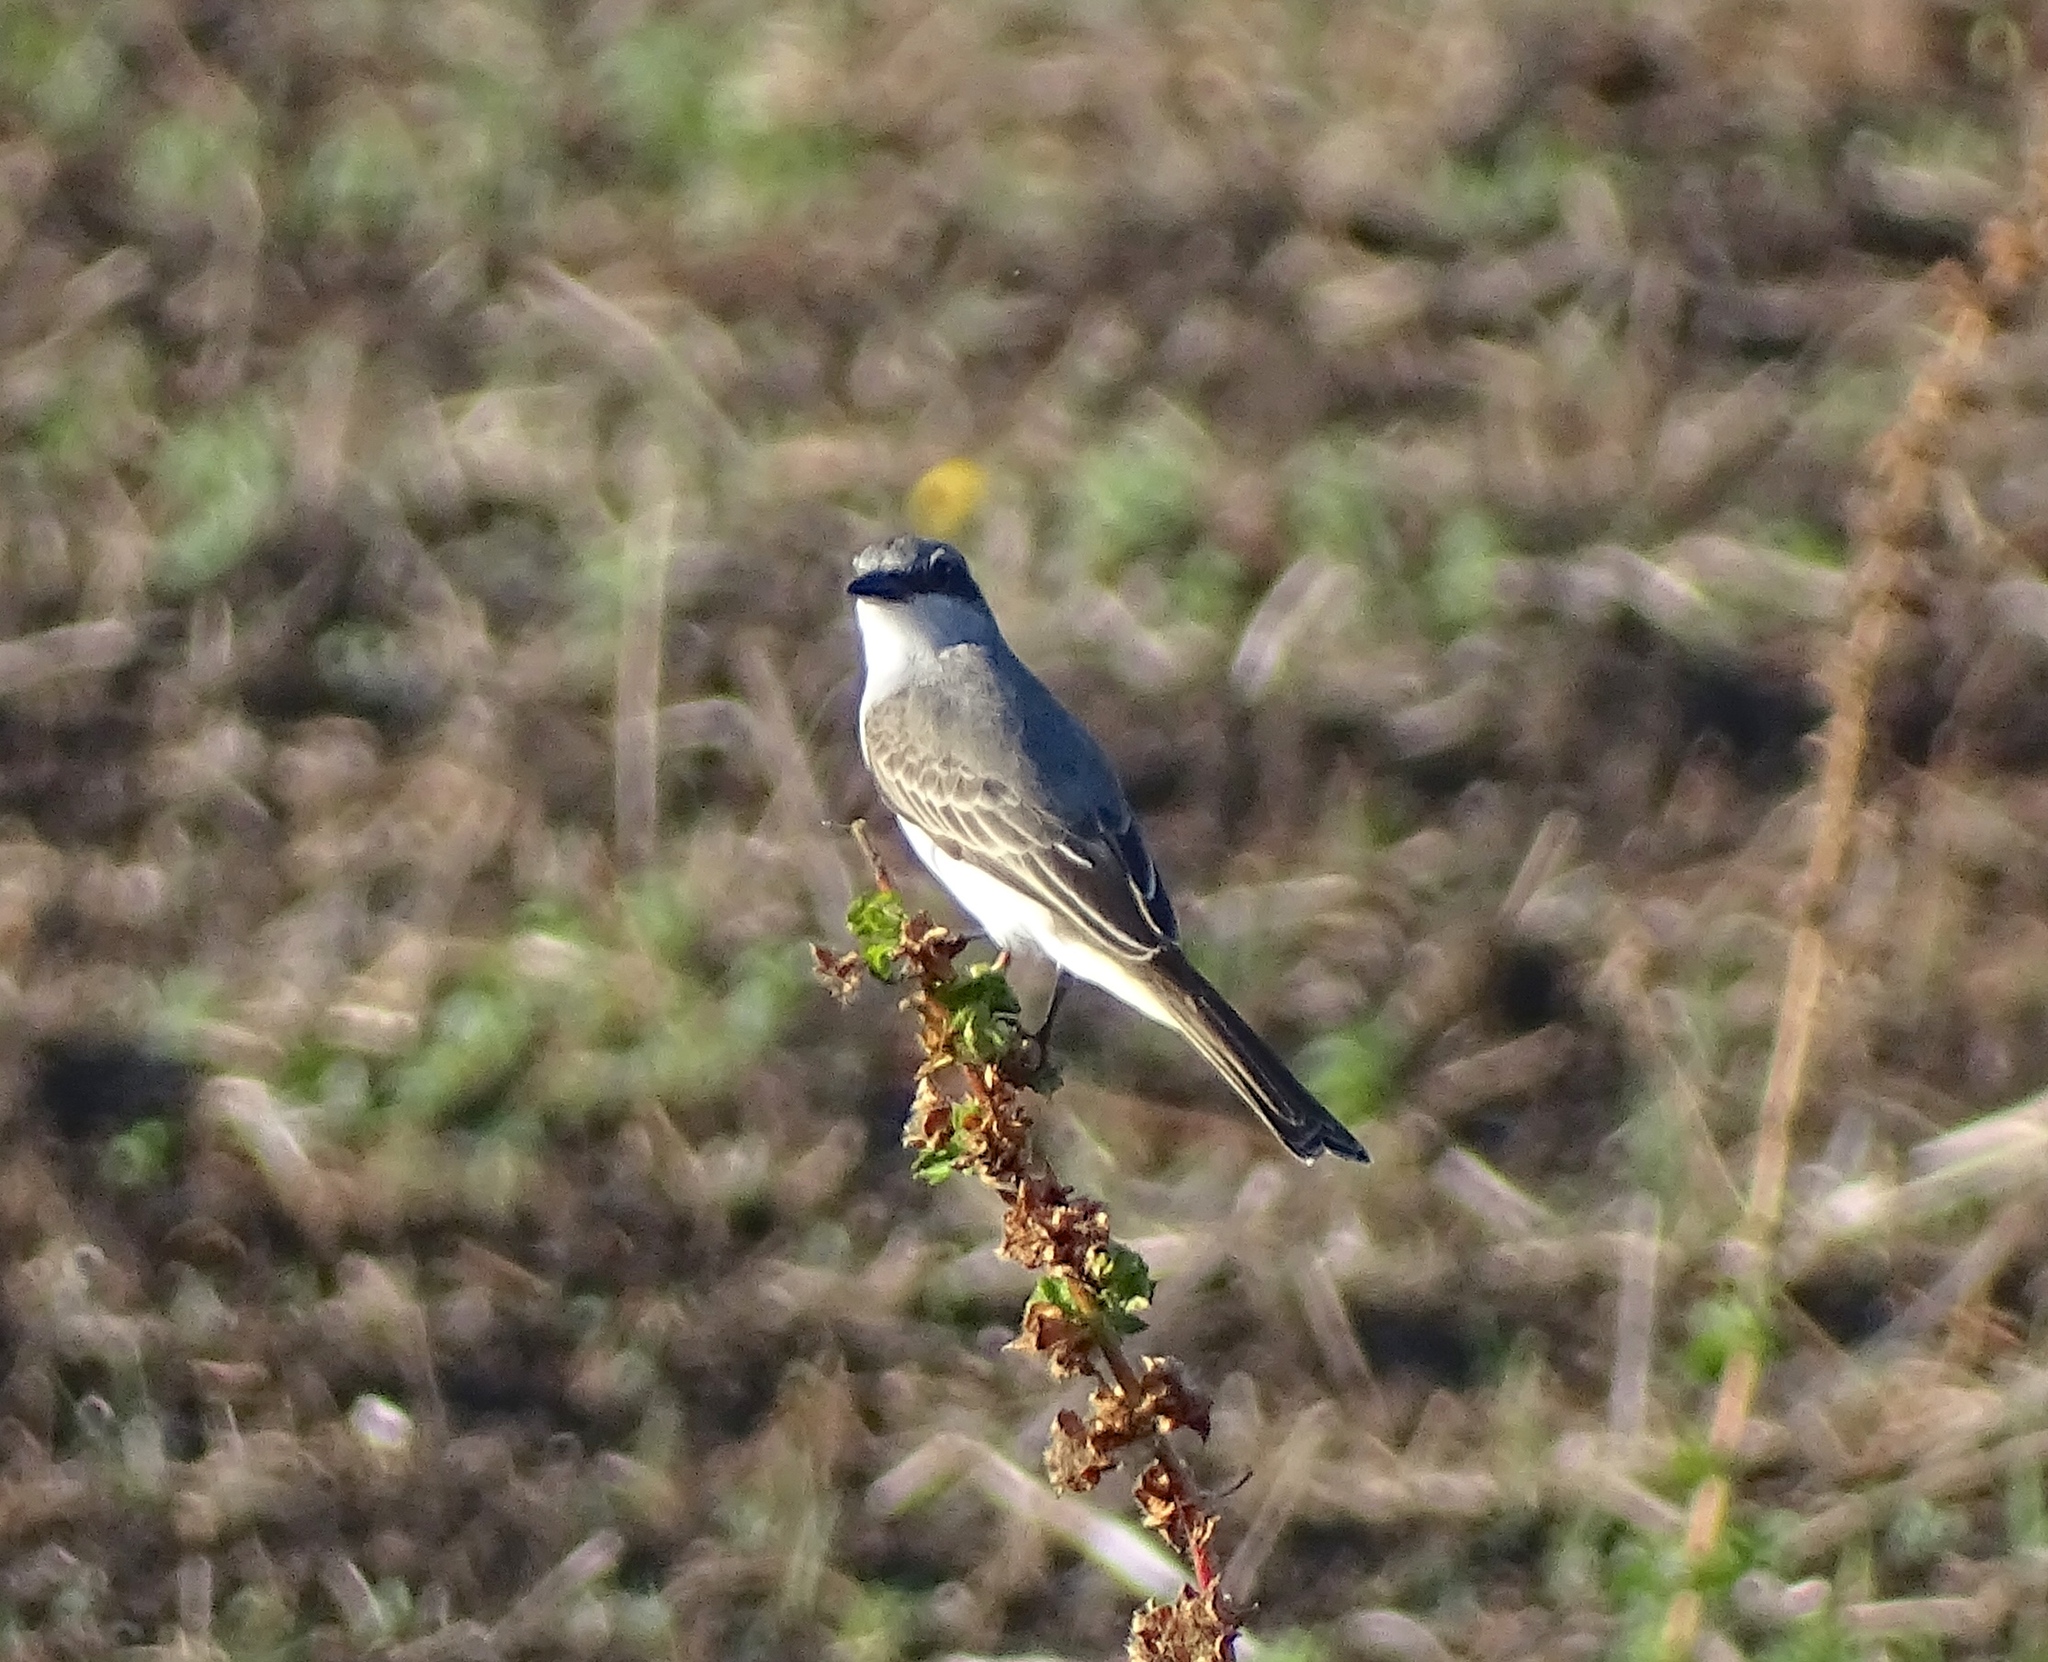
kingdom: Animalia
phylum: Chordata
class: Aves
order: Passeriformes
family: Tyrannidae
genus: Tyrannus
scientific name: Tyrannus dominicensis
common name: Gray kingbird
